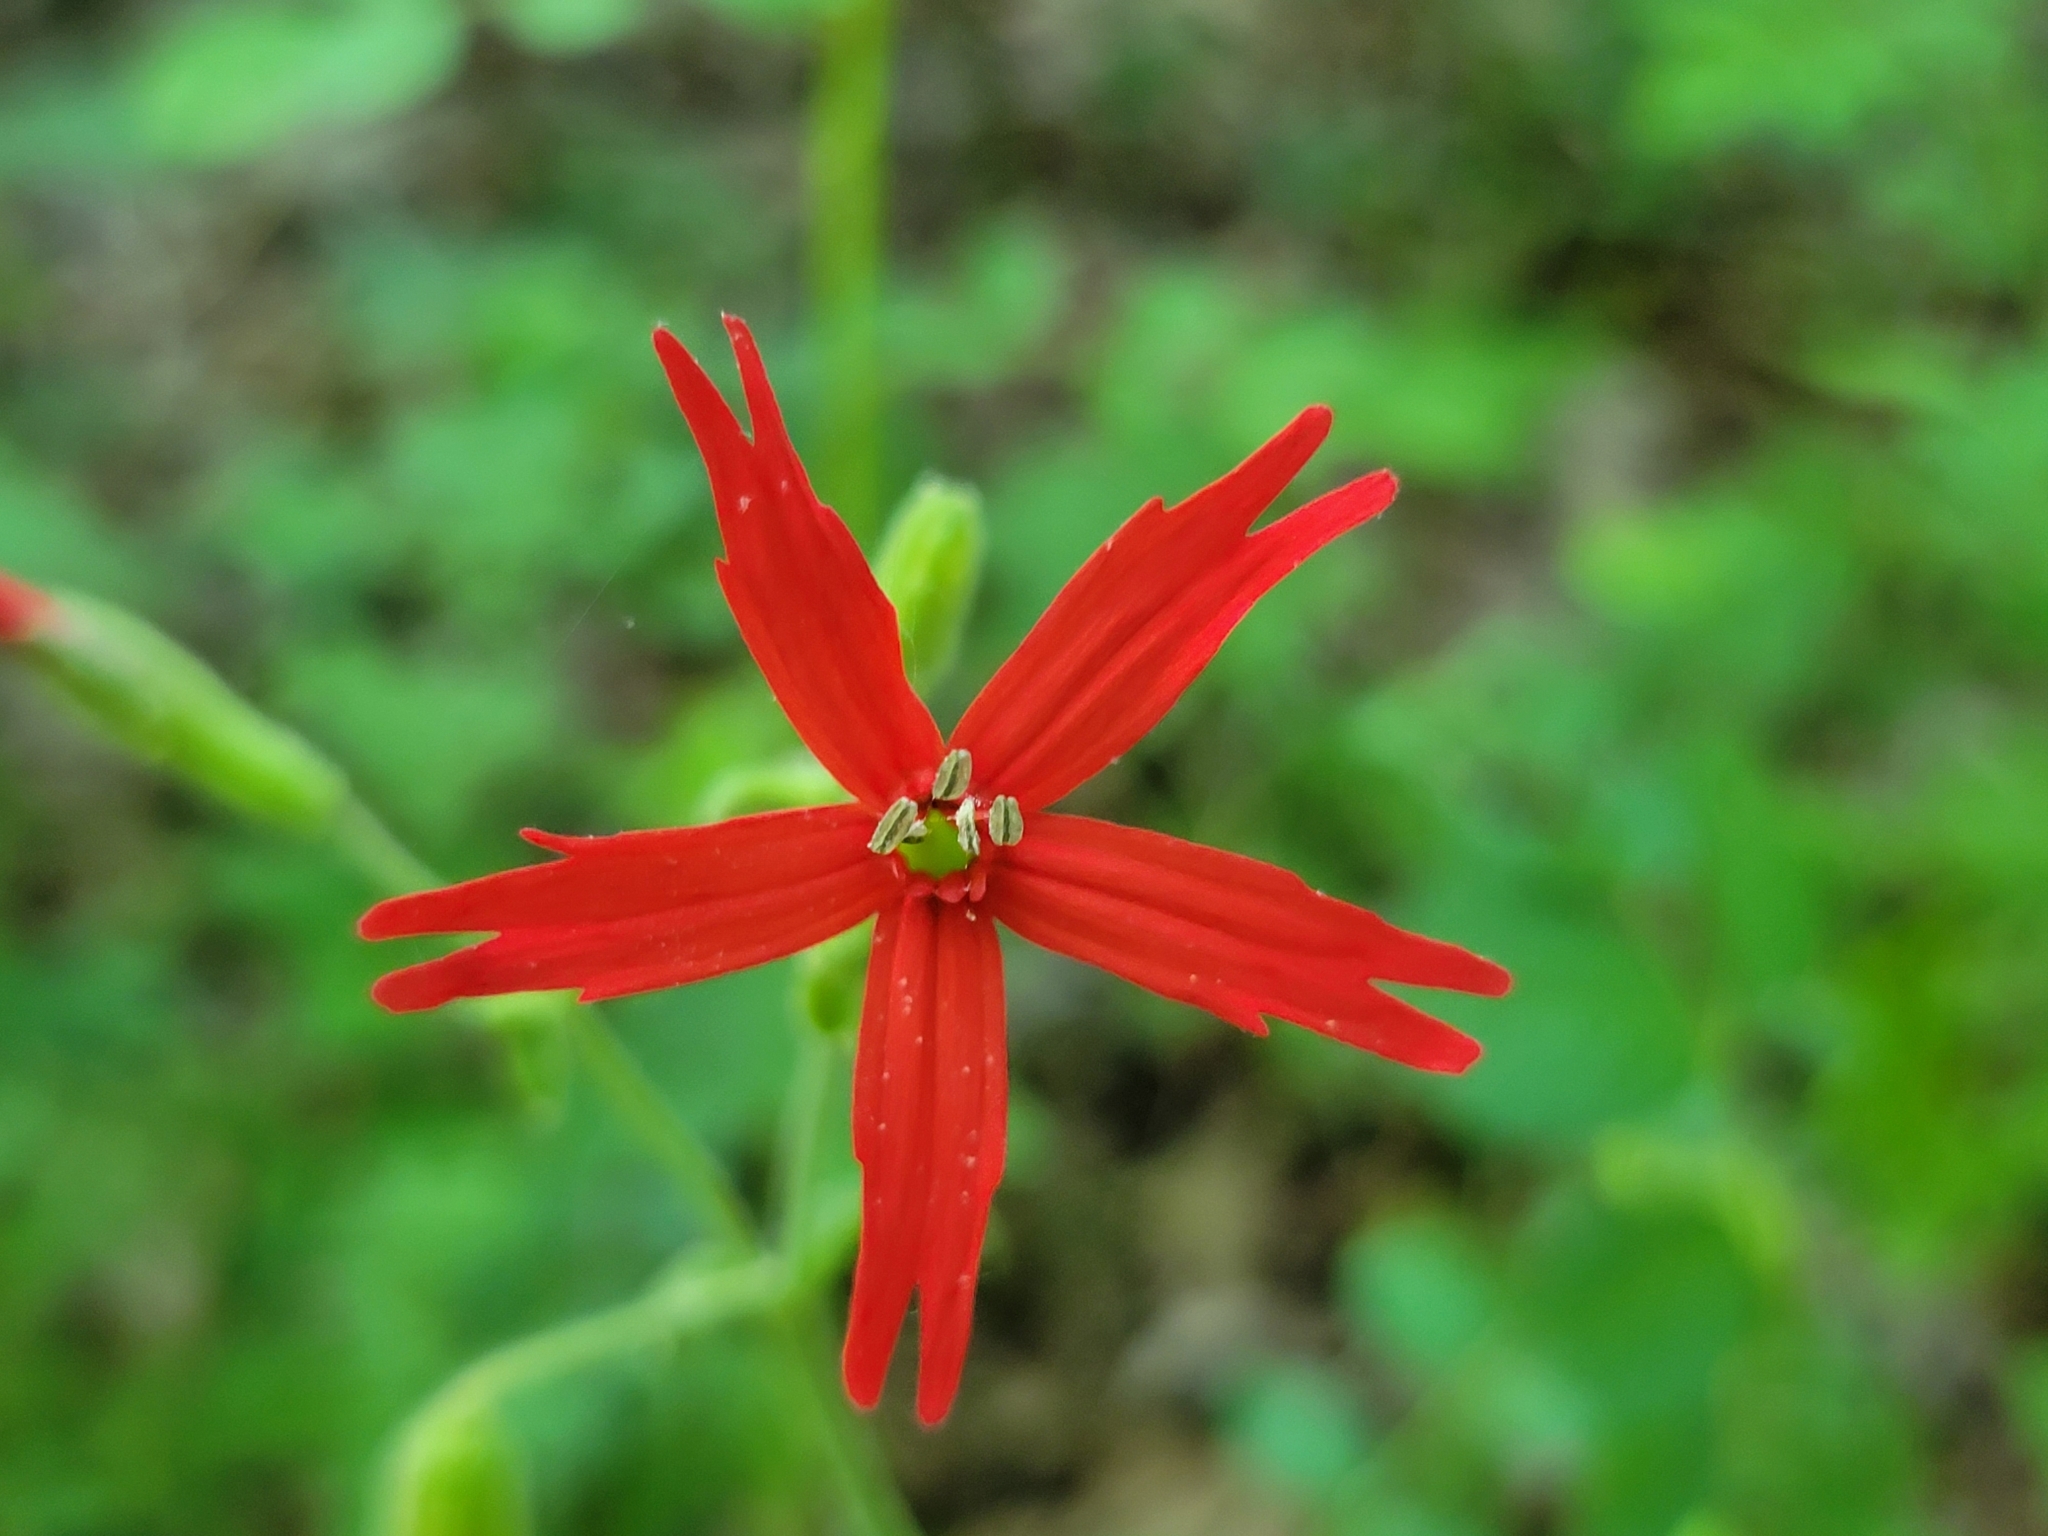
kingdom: Plantae
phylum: Tracheophyta
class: Magnoliopsida
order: Caryophyllales
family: Caryophyllaceae
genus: Silene
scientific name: Silene virginica
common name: Fire-pink
